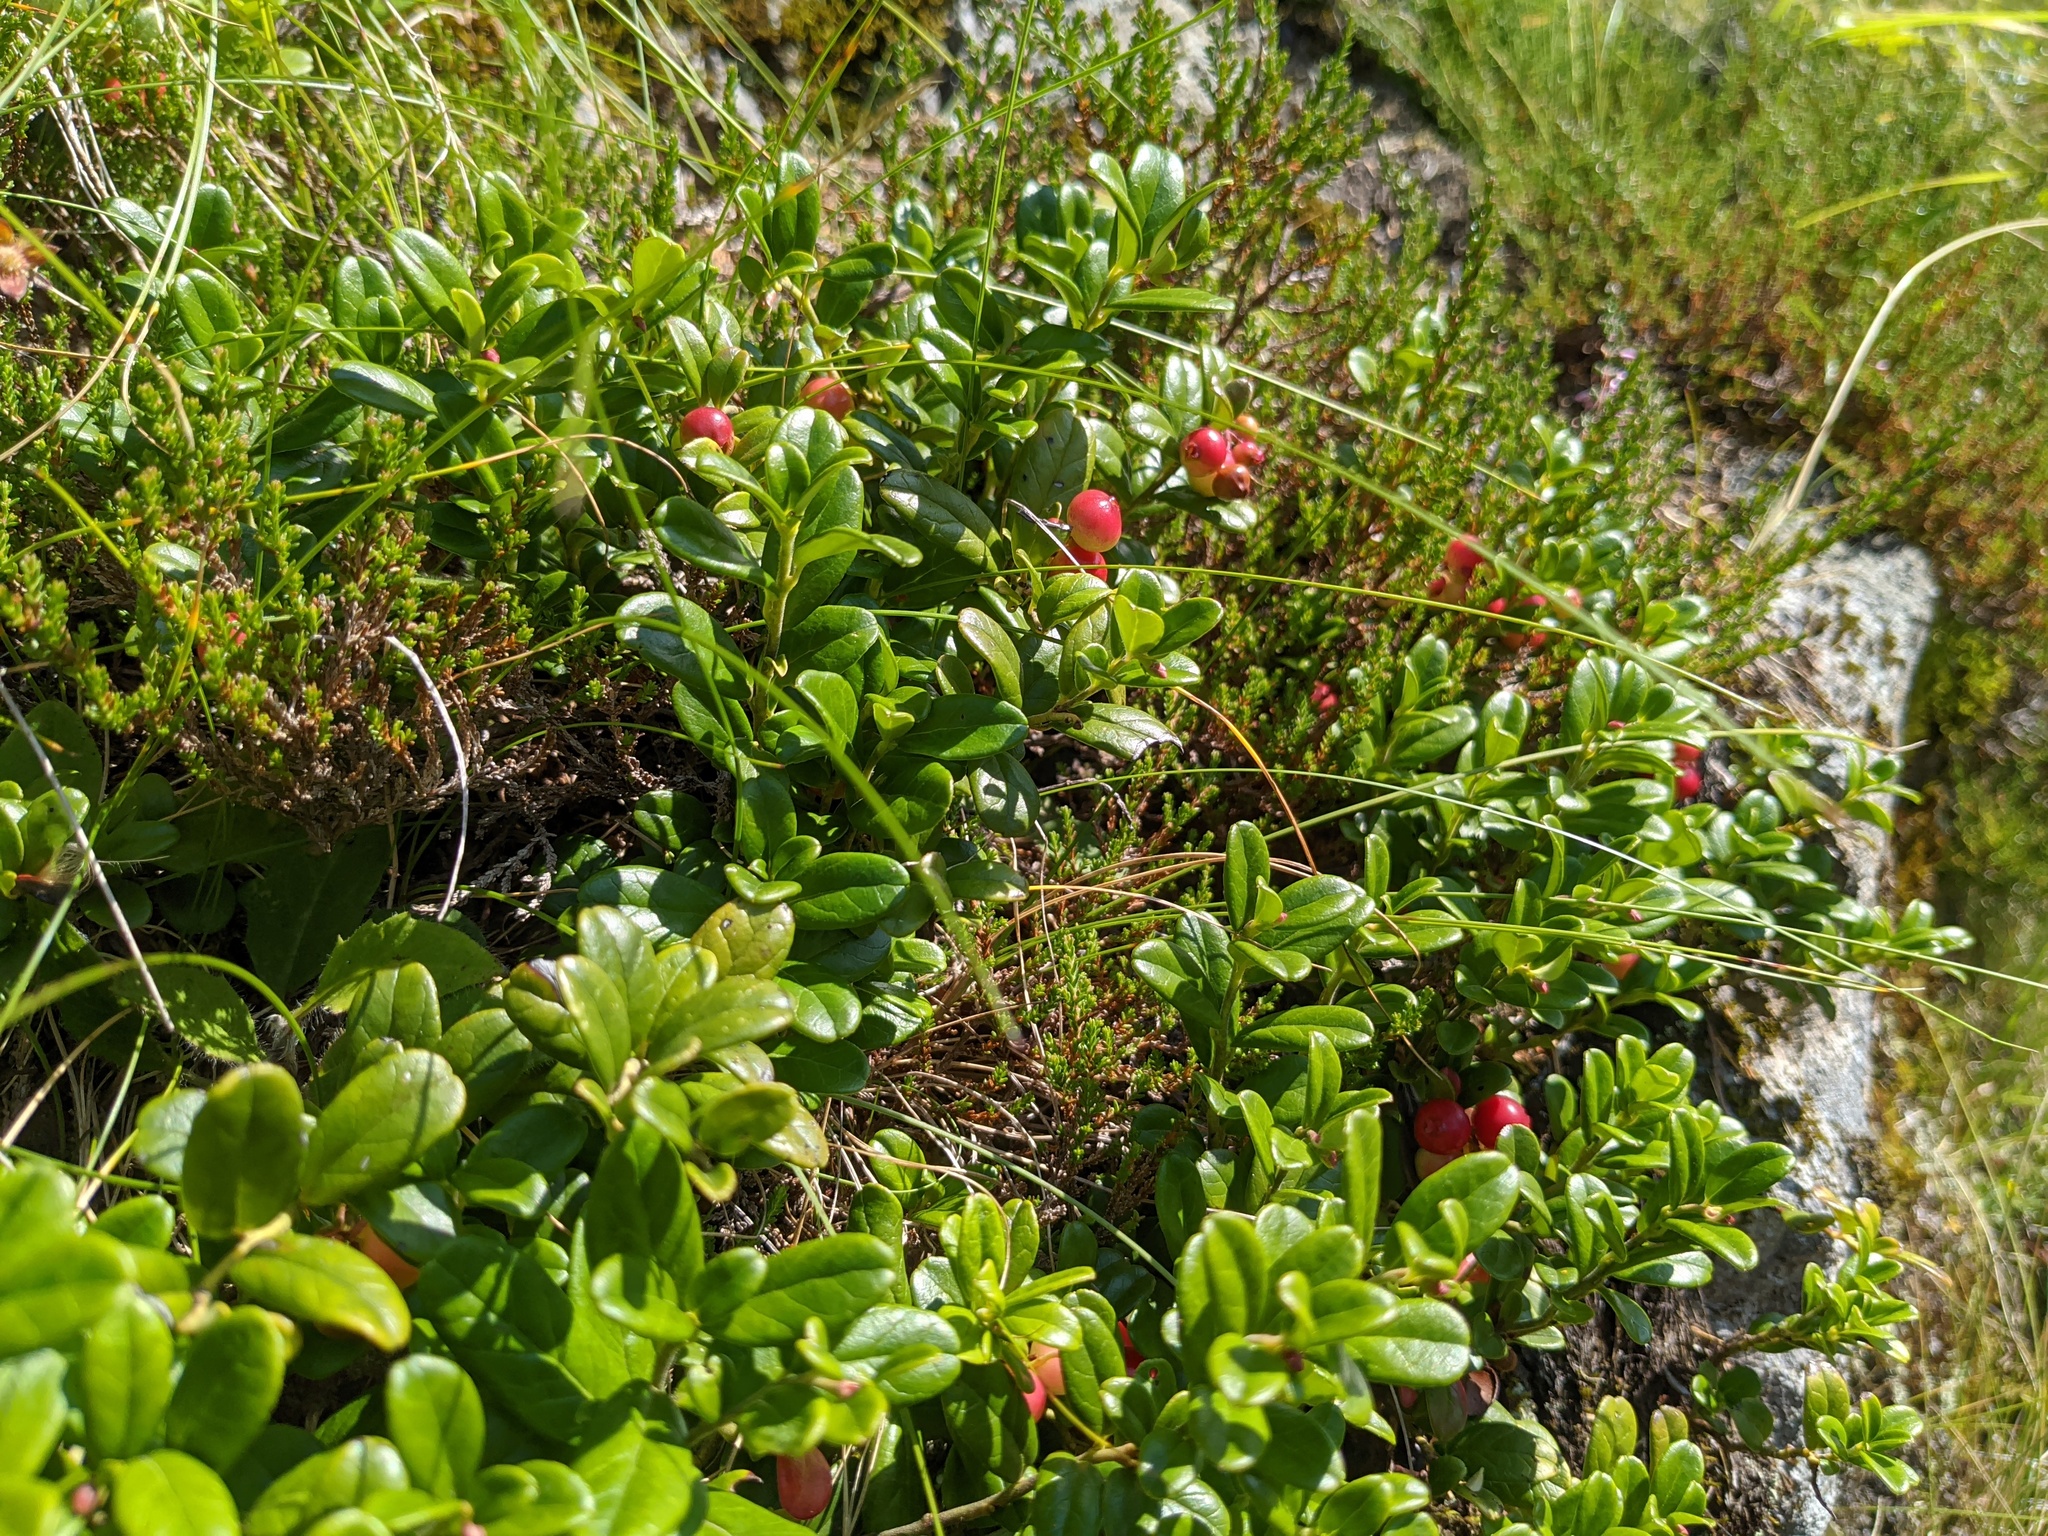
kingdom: Plantae
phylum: Tracheophyta
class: Magnoliopsida
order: Ericales
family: Ericaceae
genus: Vaccinium
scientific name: Vaccinium vitis-idaea
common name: Cowberry
